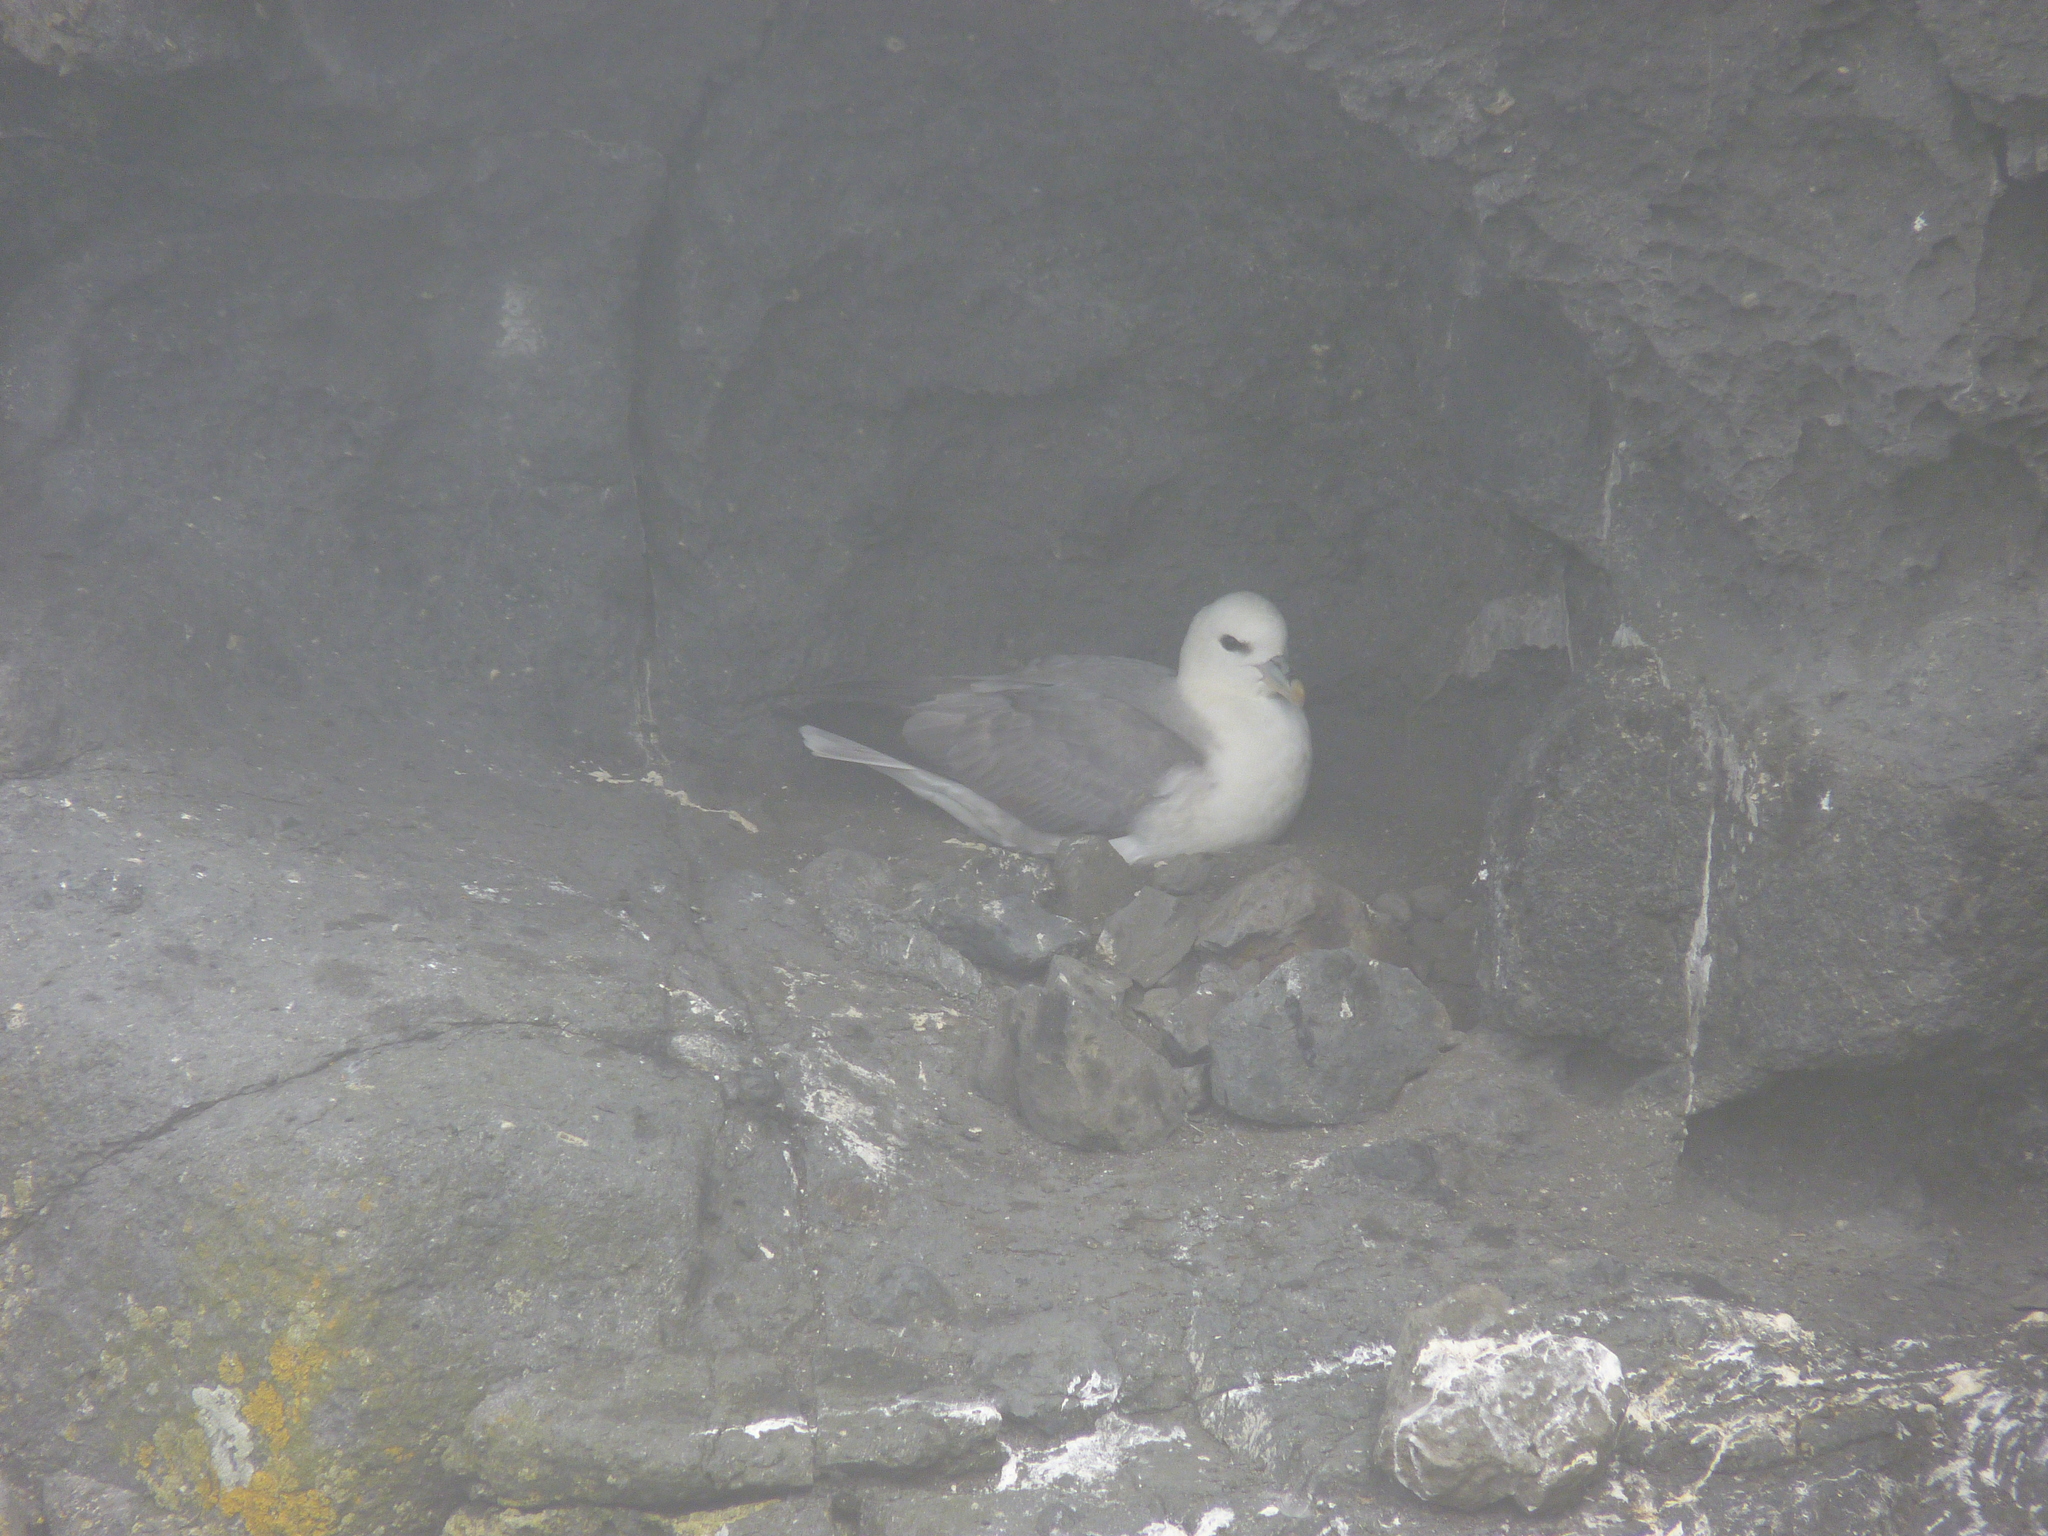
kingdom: Animalia
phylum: Chordata
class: Aves
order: Procellariiformes
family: Procellariidae
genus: Fulmarus
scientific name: Fulmarus glacialis
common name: Northern fulmar
